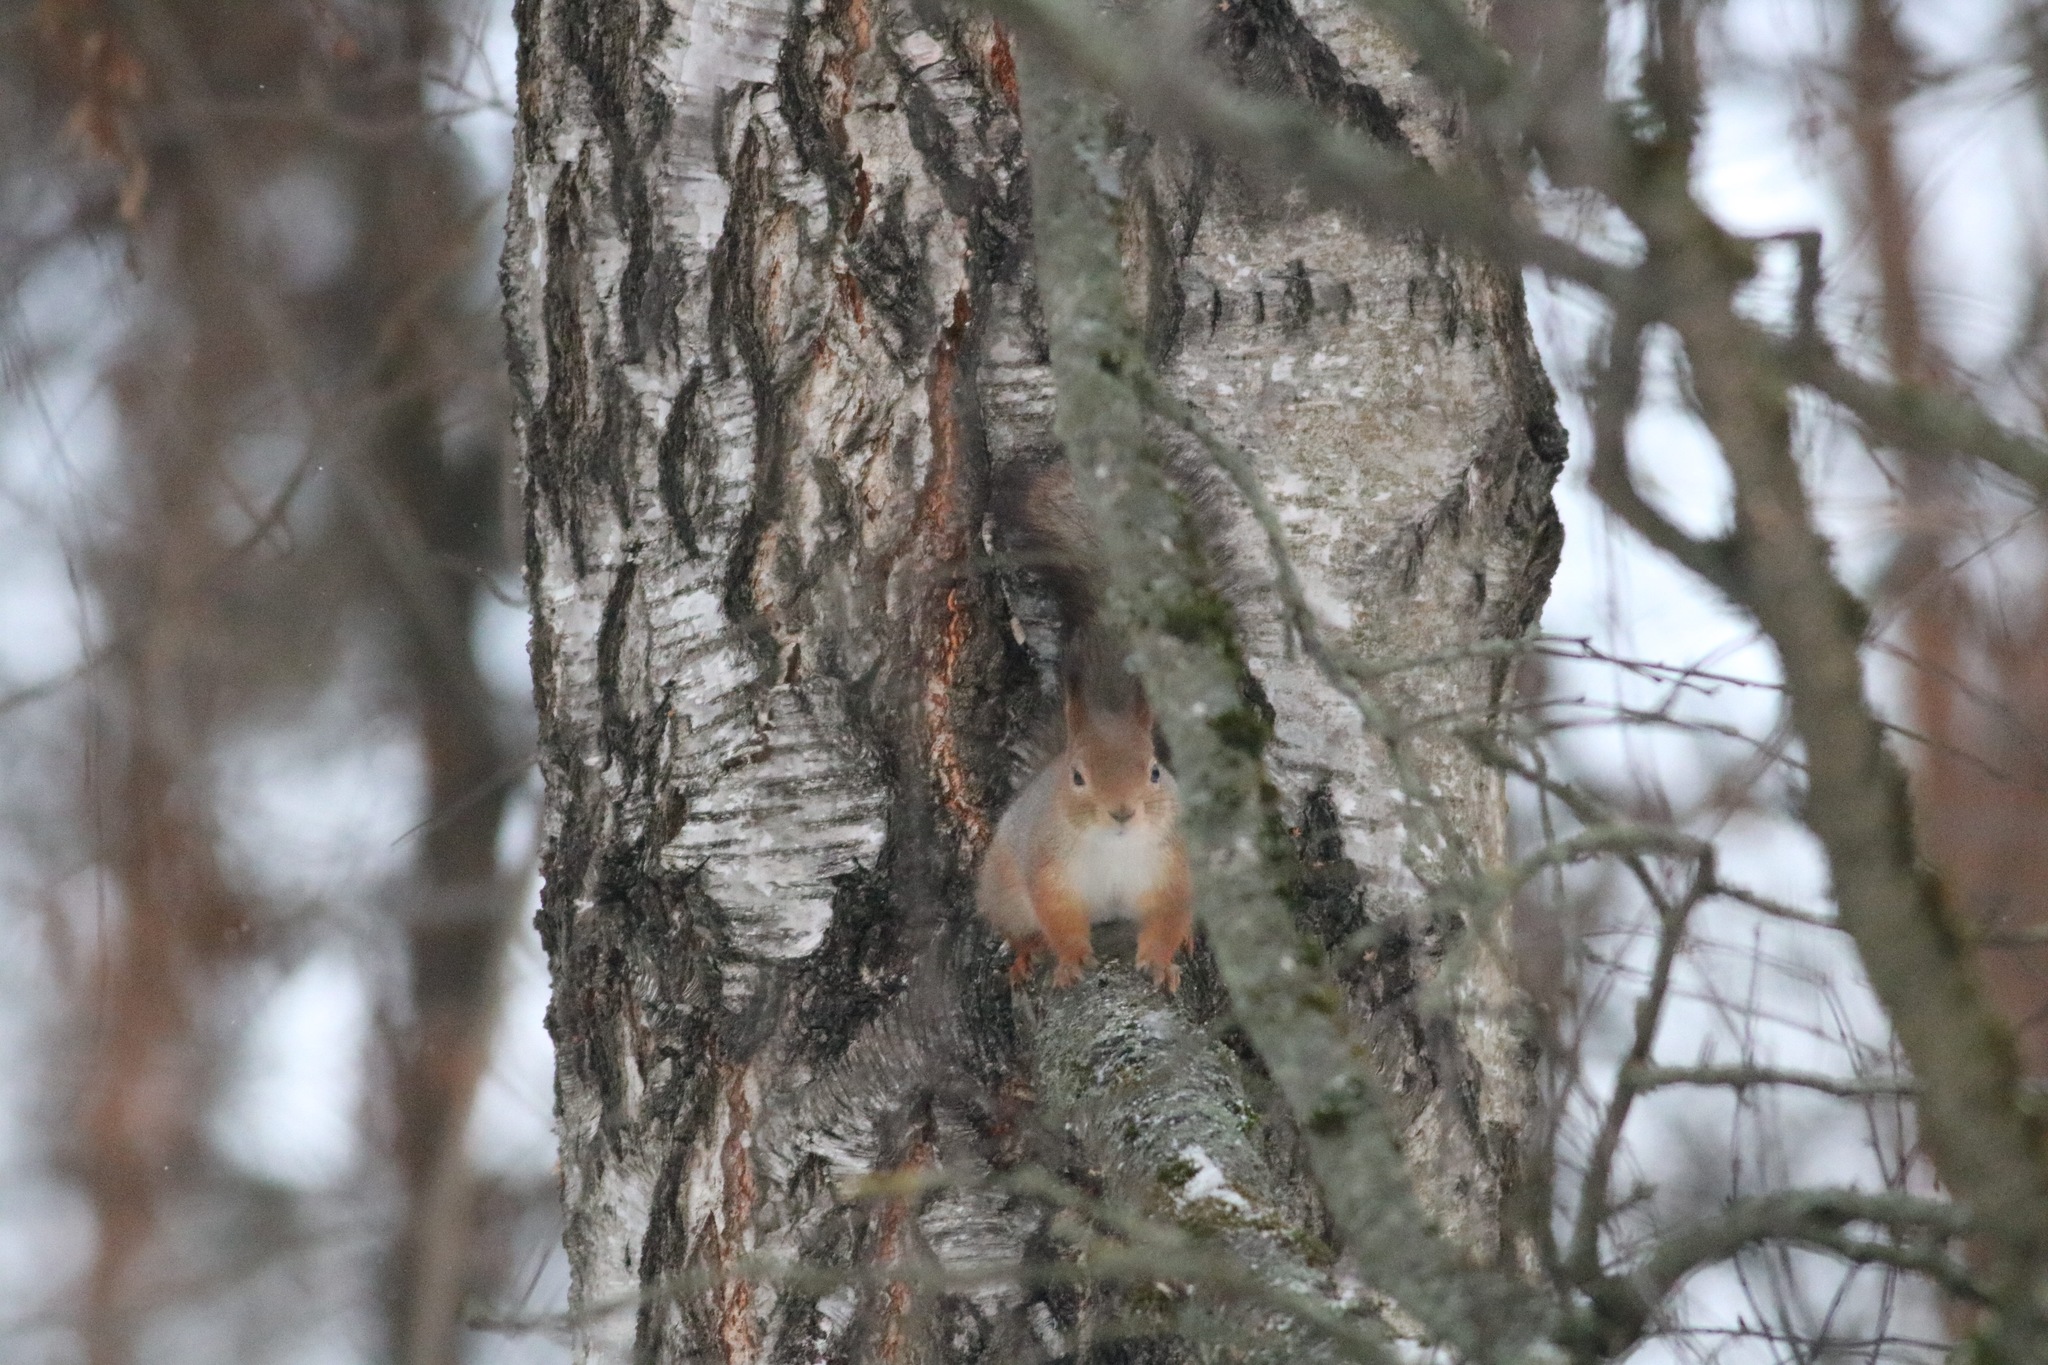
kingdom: Animalia
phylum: Chordata
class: Mammalia
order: Rodentia
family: Sciuridae
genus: Sciurus
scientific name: Sciurus vulgaris
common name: Eurasian red squirrel
